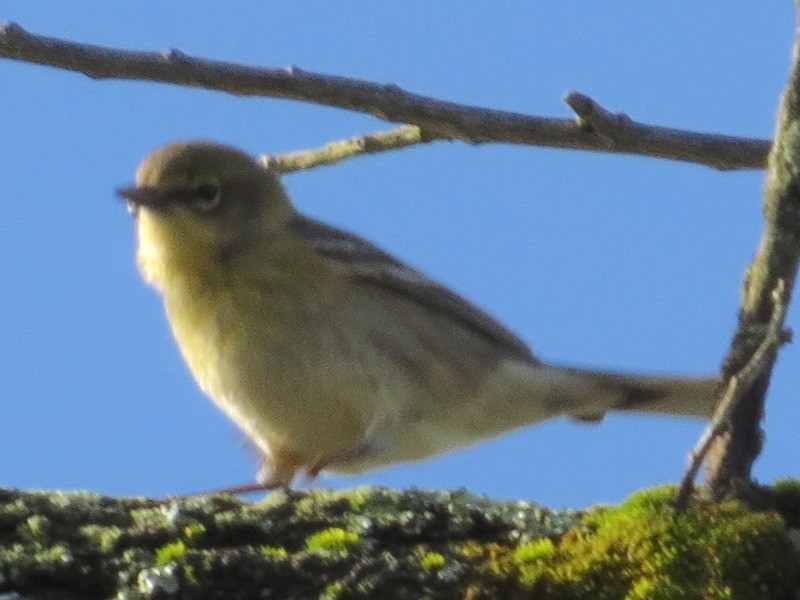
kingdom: Animalia
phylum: Chordata
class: Aves
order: Passeriformes
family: Parulidae
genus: Setophaga
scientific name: Setophaga pinus
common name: Pine warbler
